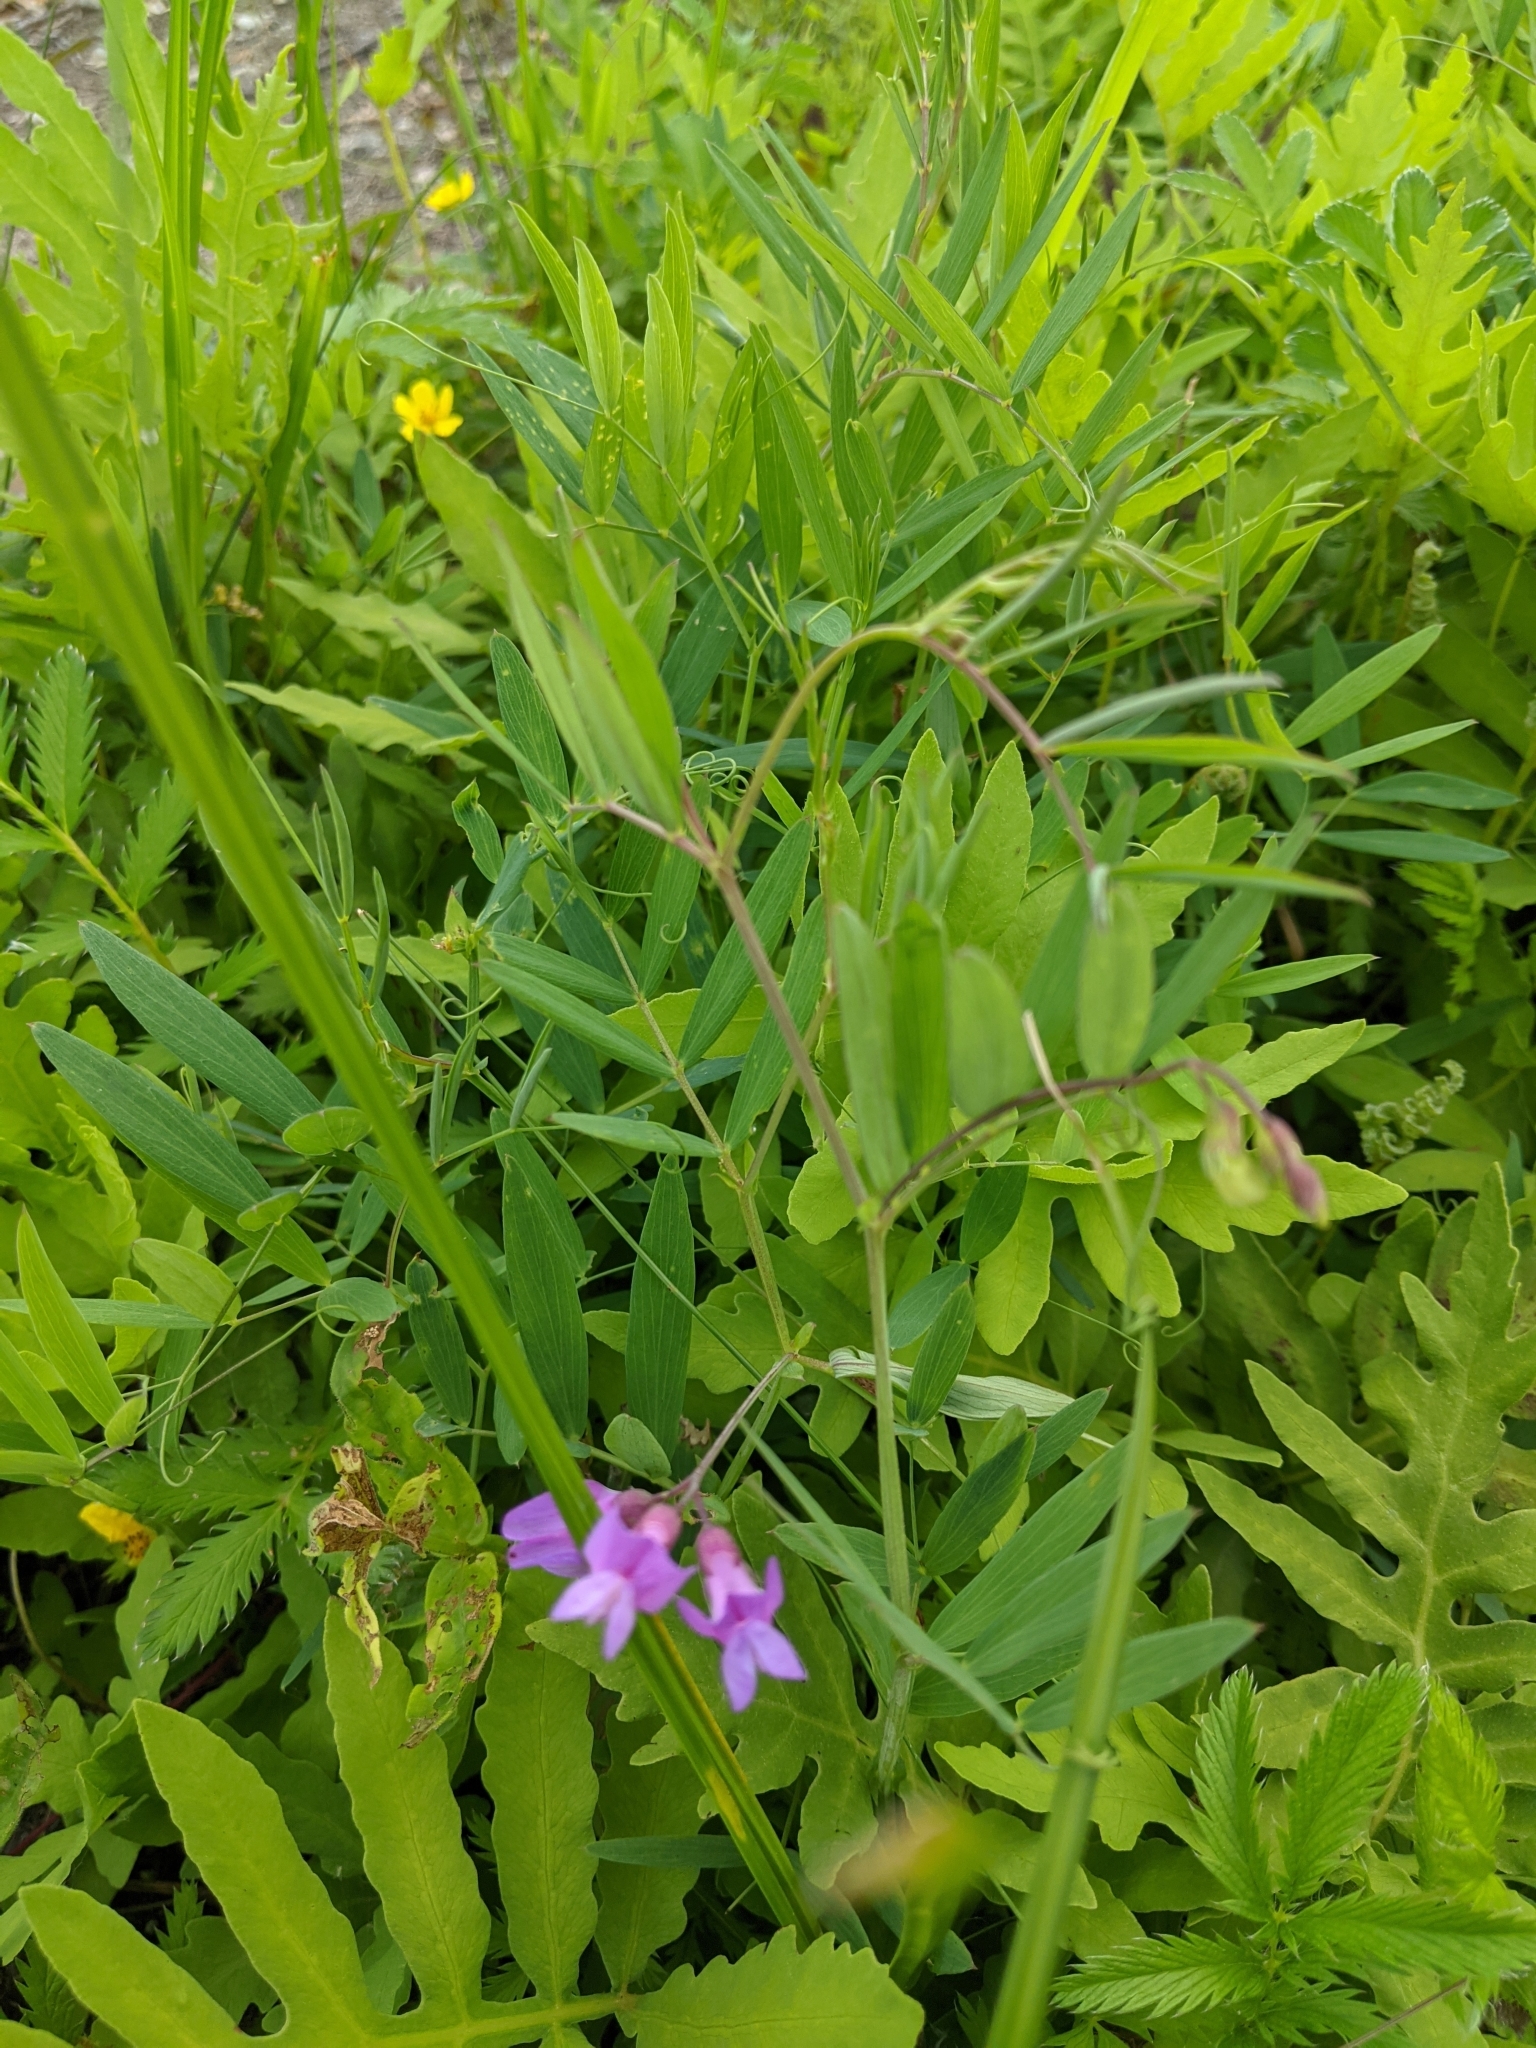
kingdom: Plantae
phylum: Tracheophyta
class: Magnoliopsida
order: Fabales
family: Fabaceae
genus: Lathyrus
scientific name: Lathyrus palustris
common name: Marsh pea
